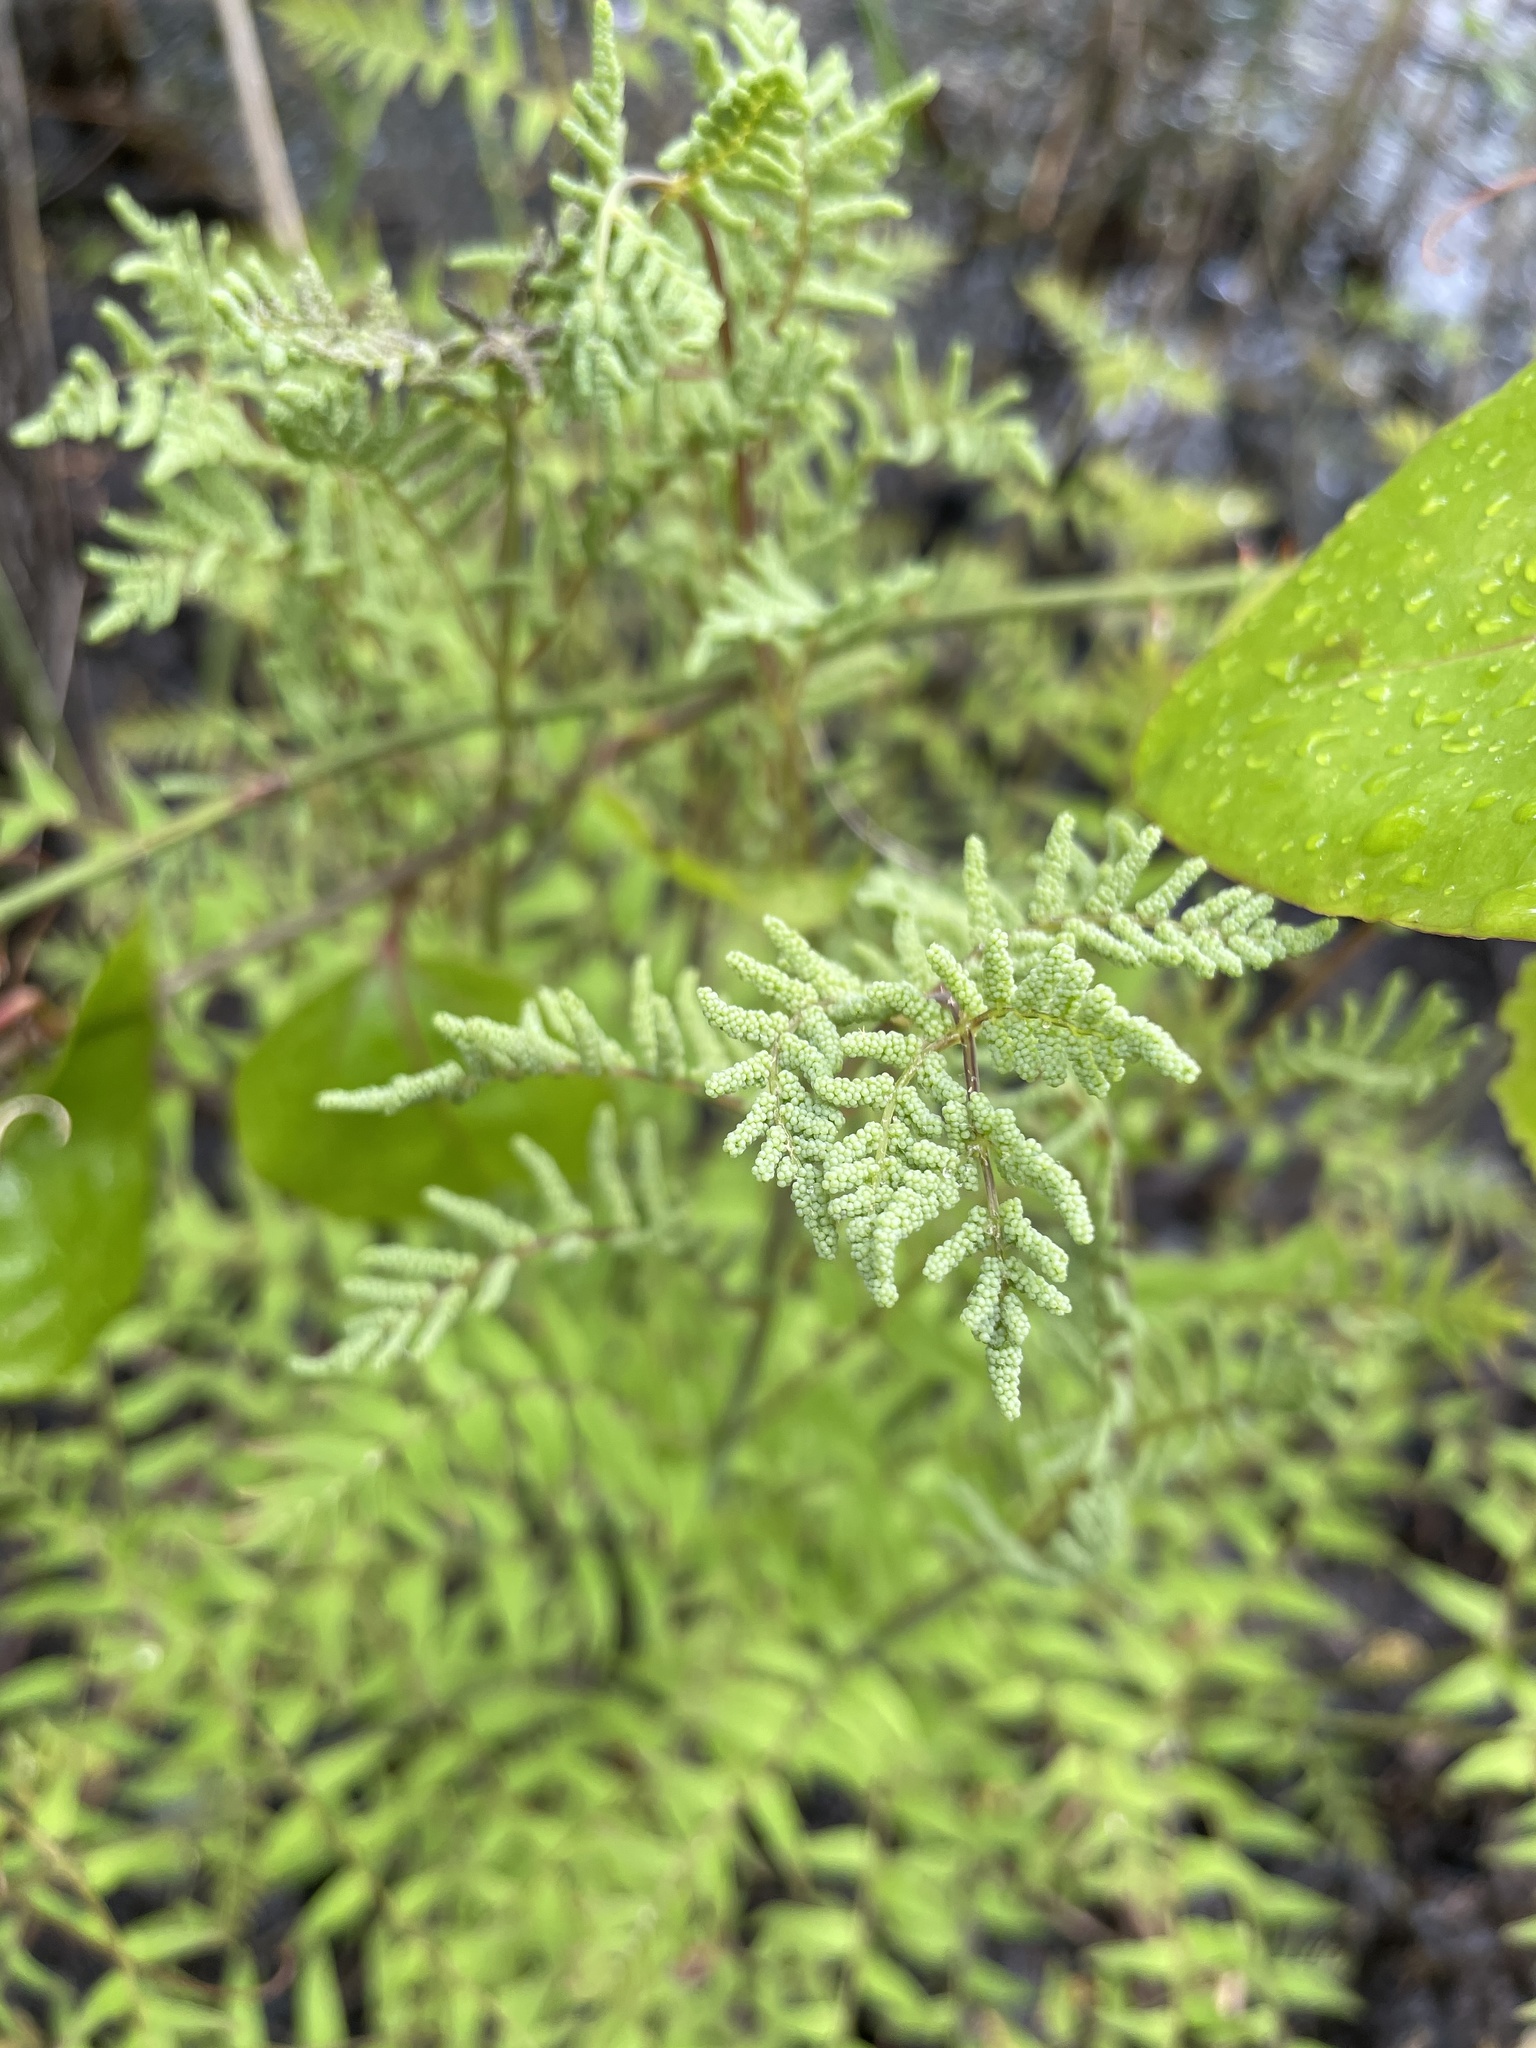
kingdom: Plantae
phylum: Tracheophyta
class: Polypodiopsida
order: Osmundales
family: Osmundaceae
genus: Osmunda
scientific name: Osmunda spectabilis
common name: American royal fern
